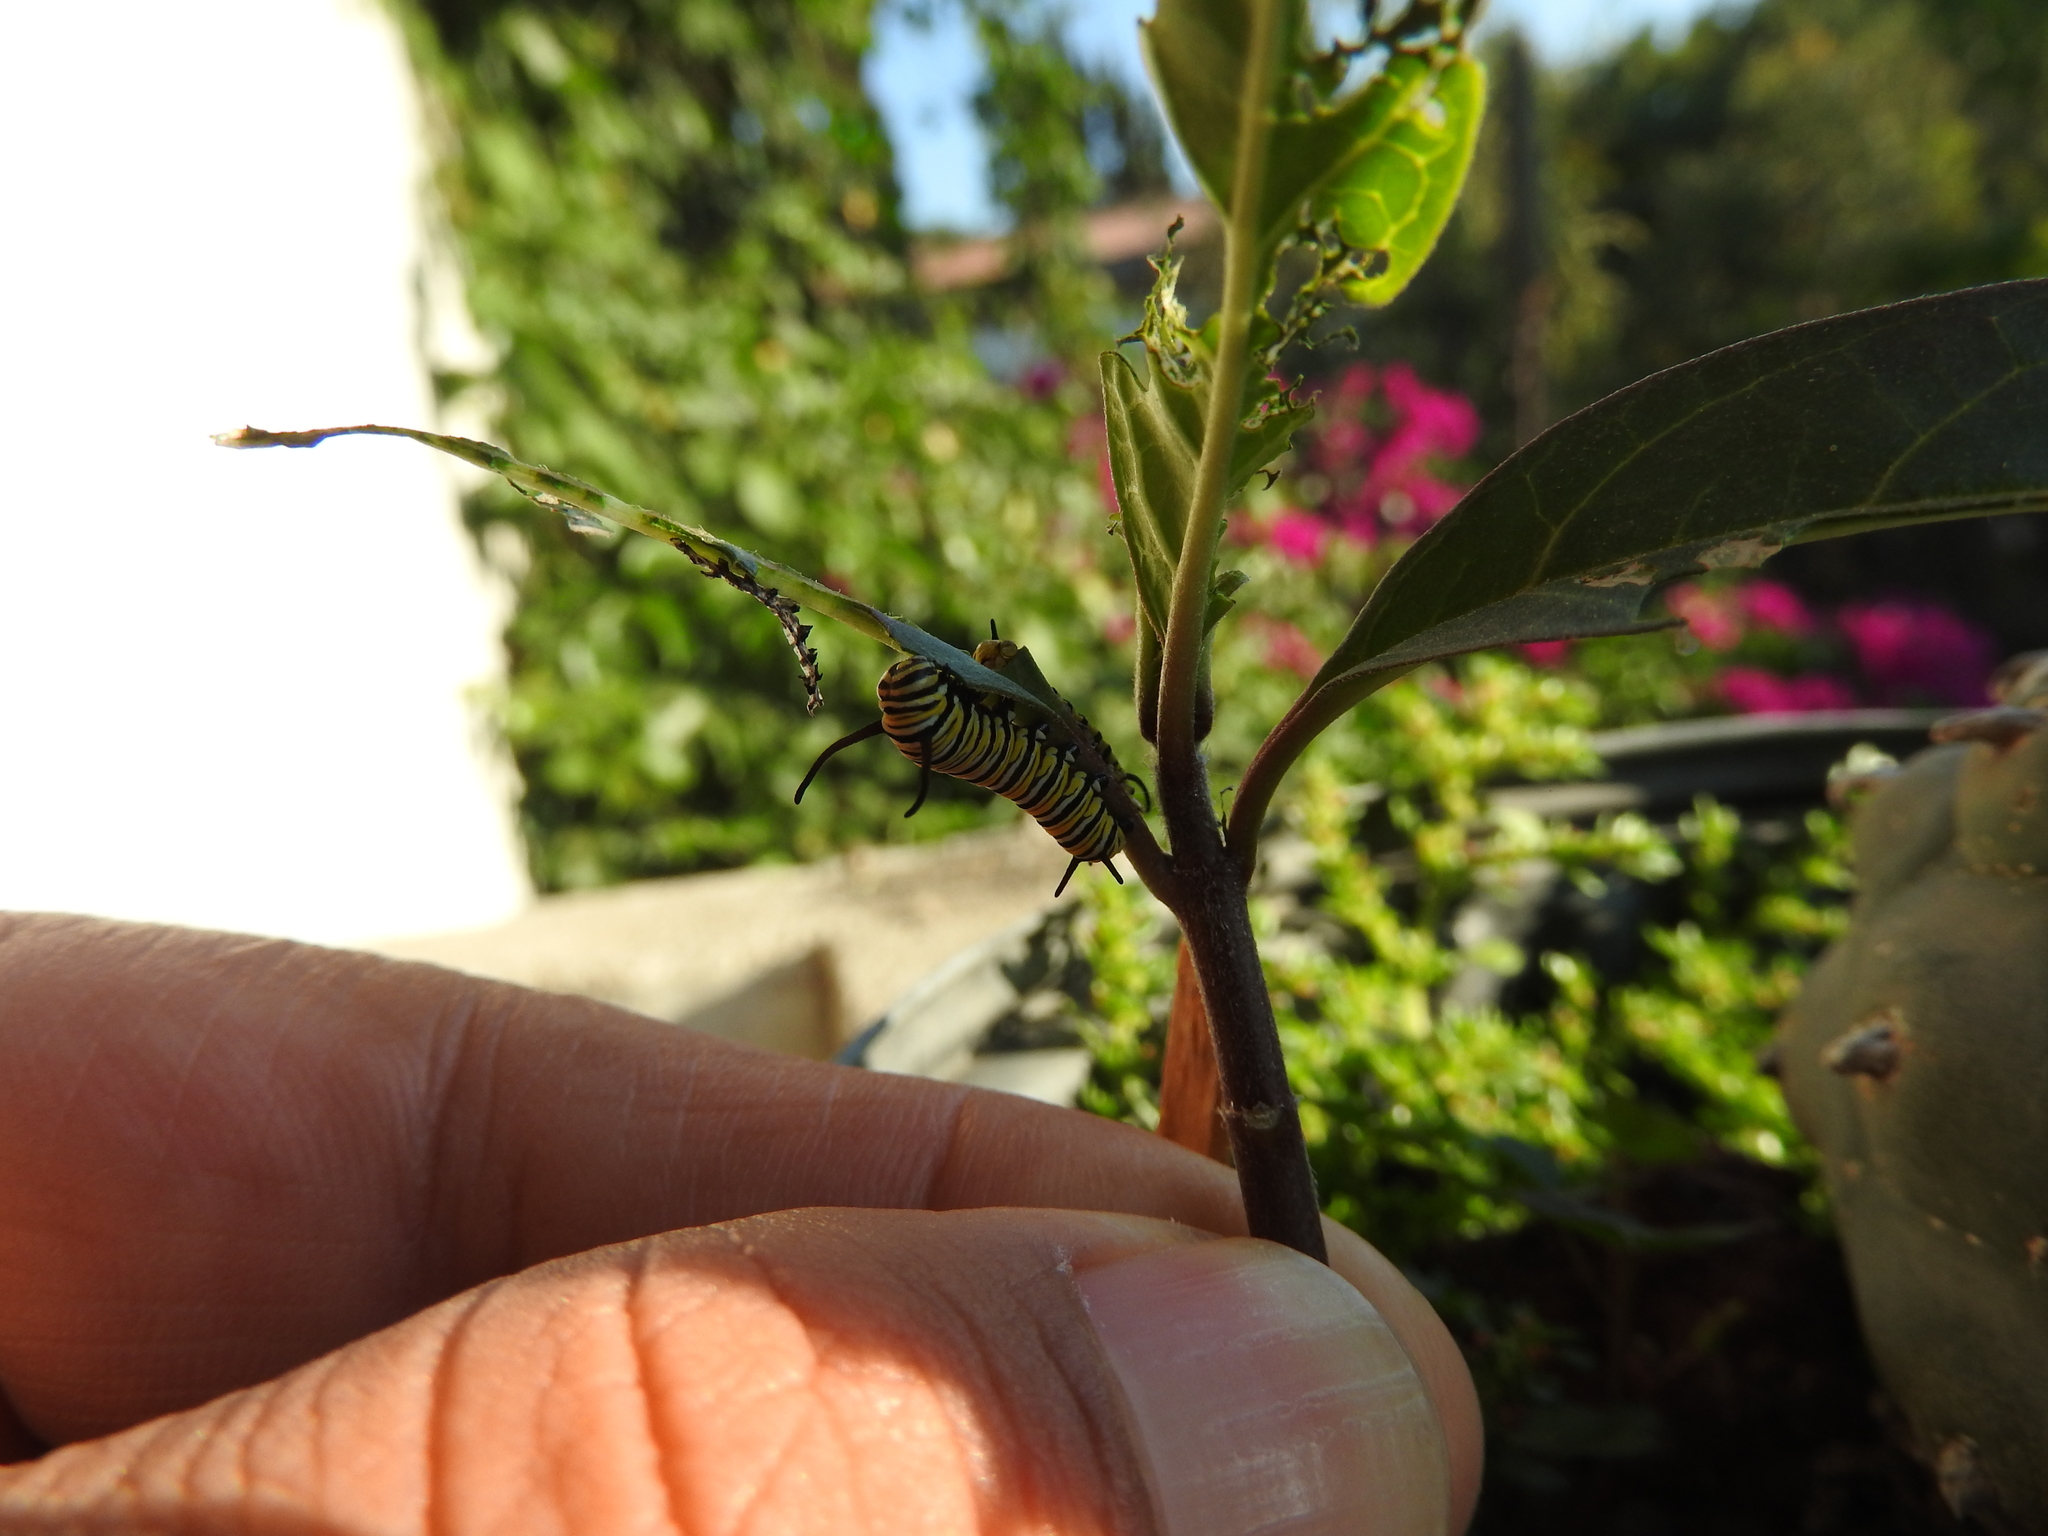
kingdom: Animalia
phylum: Arthropoda
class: Insecta
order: Lepidoptera
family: Nymphalidae
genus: Danaus
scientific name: Danaus plexippus
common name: Monarch
